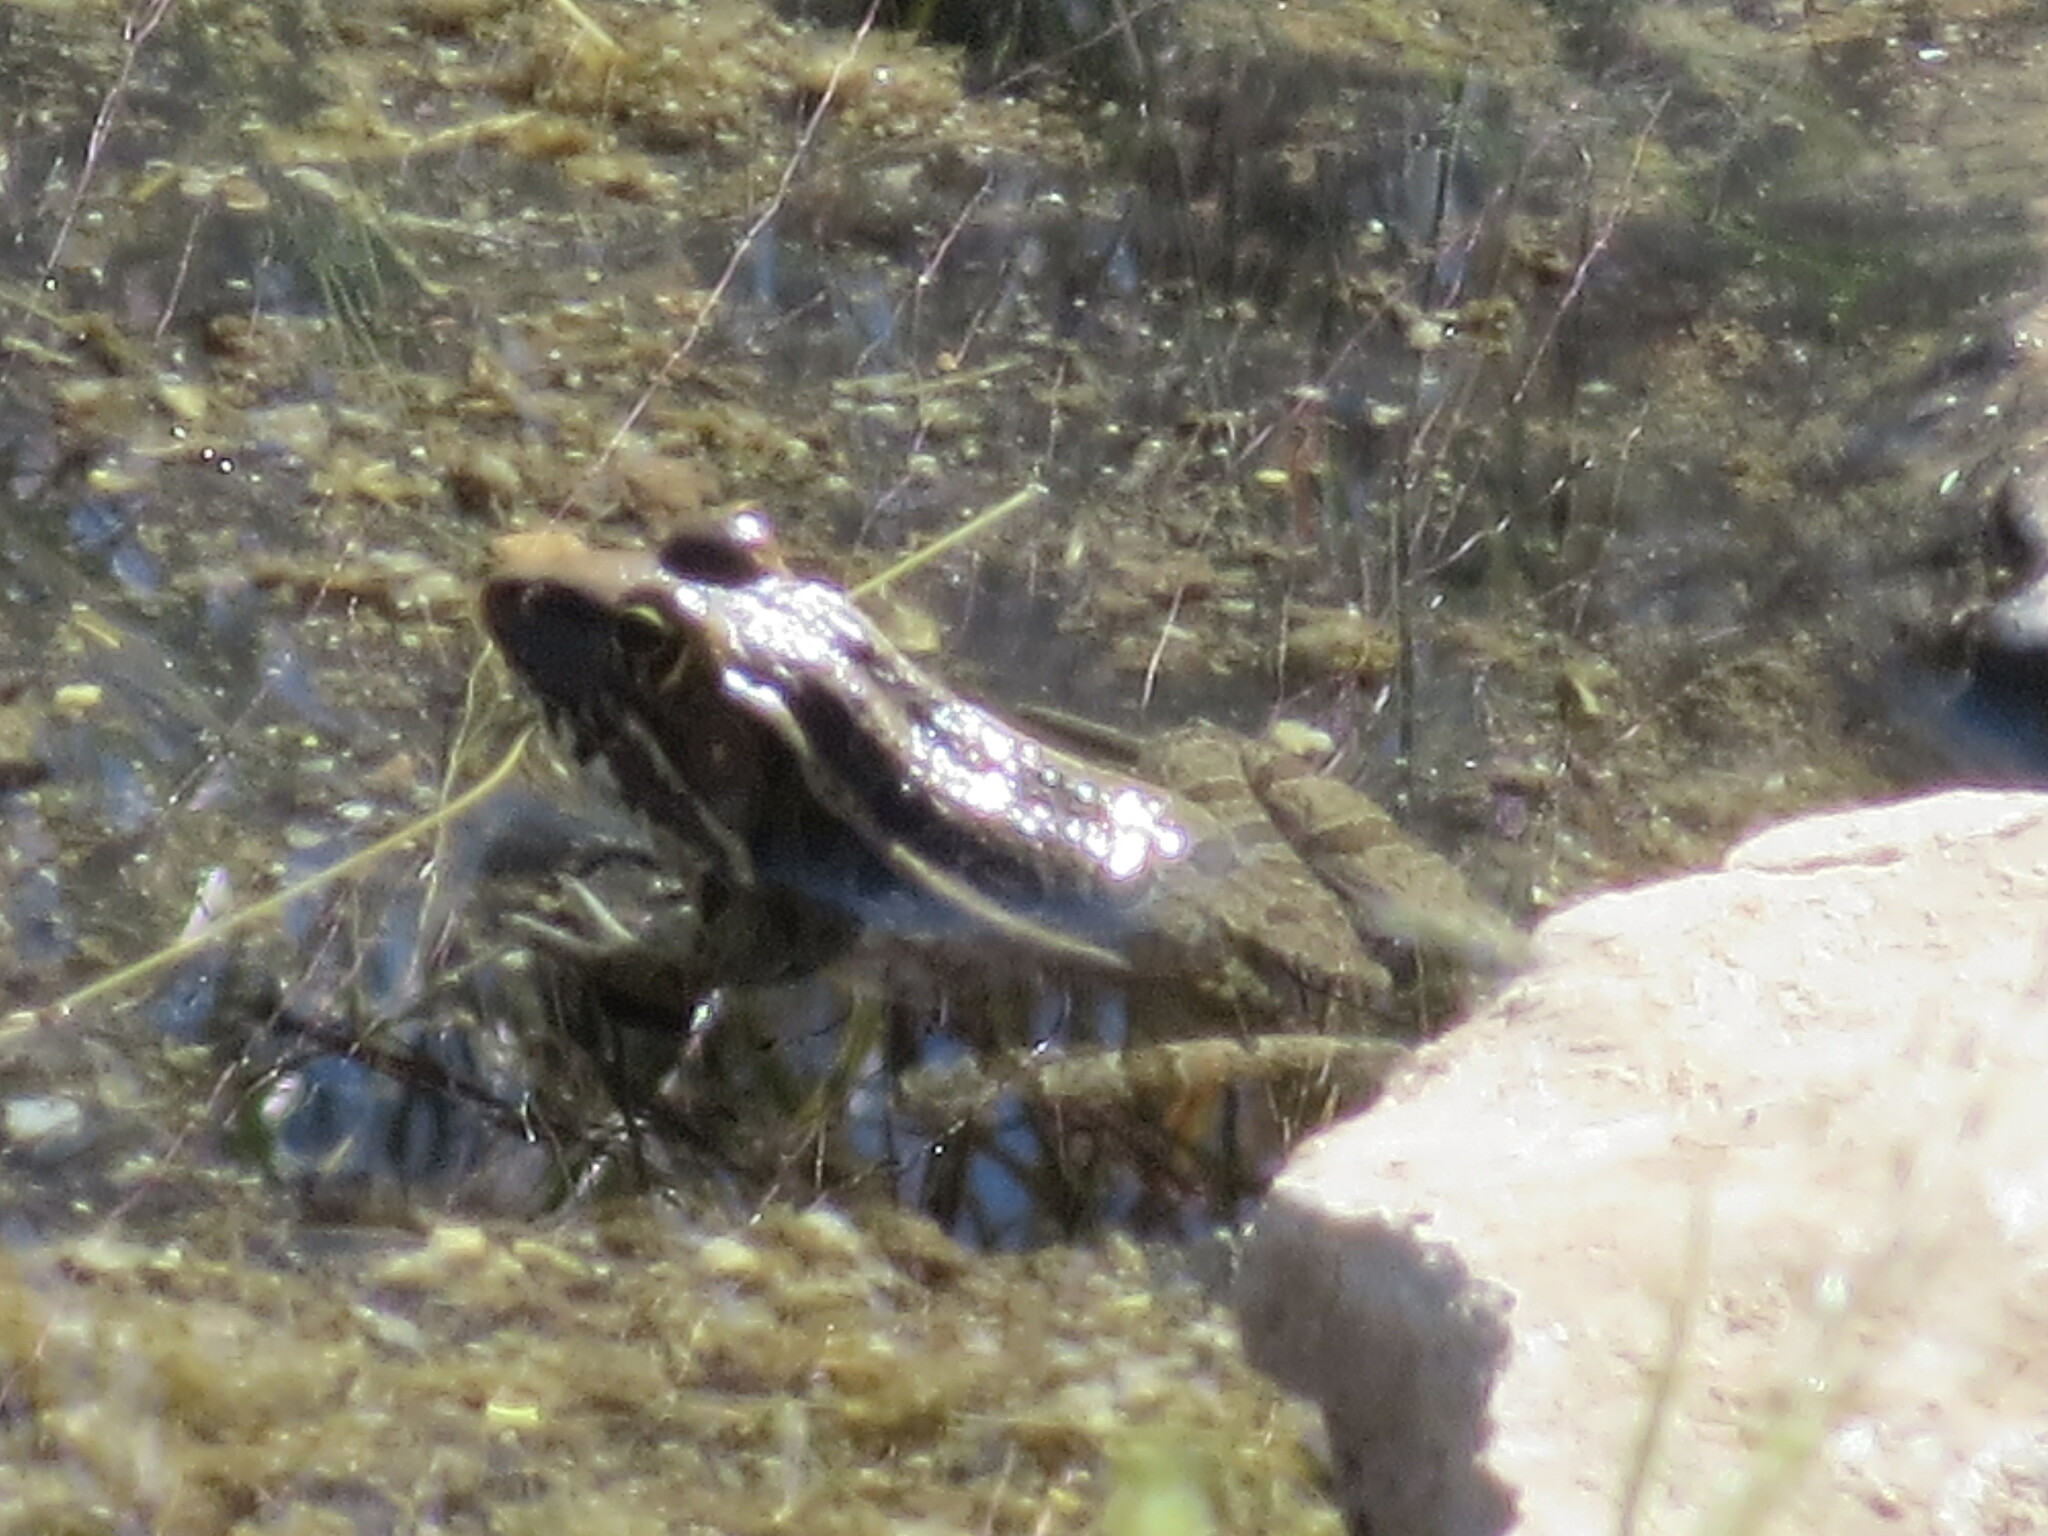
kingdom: Animalia
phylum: Chordata
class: Amphibia
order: Anura
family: Ranidae
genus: Lithobates
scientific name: Lithobates berlandieri
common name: Rio grande leopard frog
